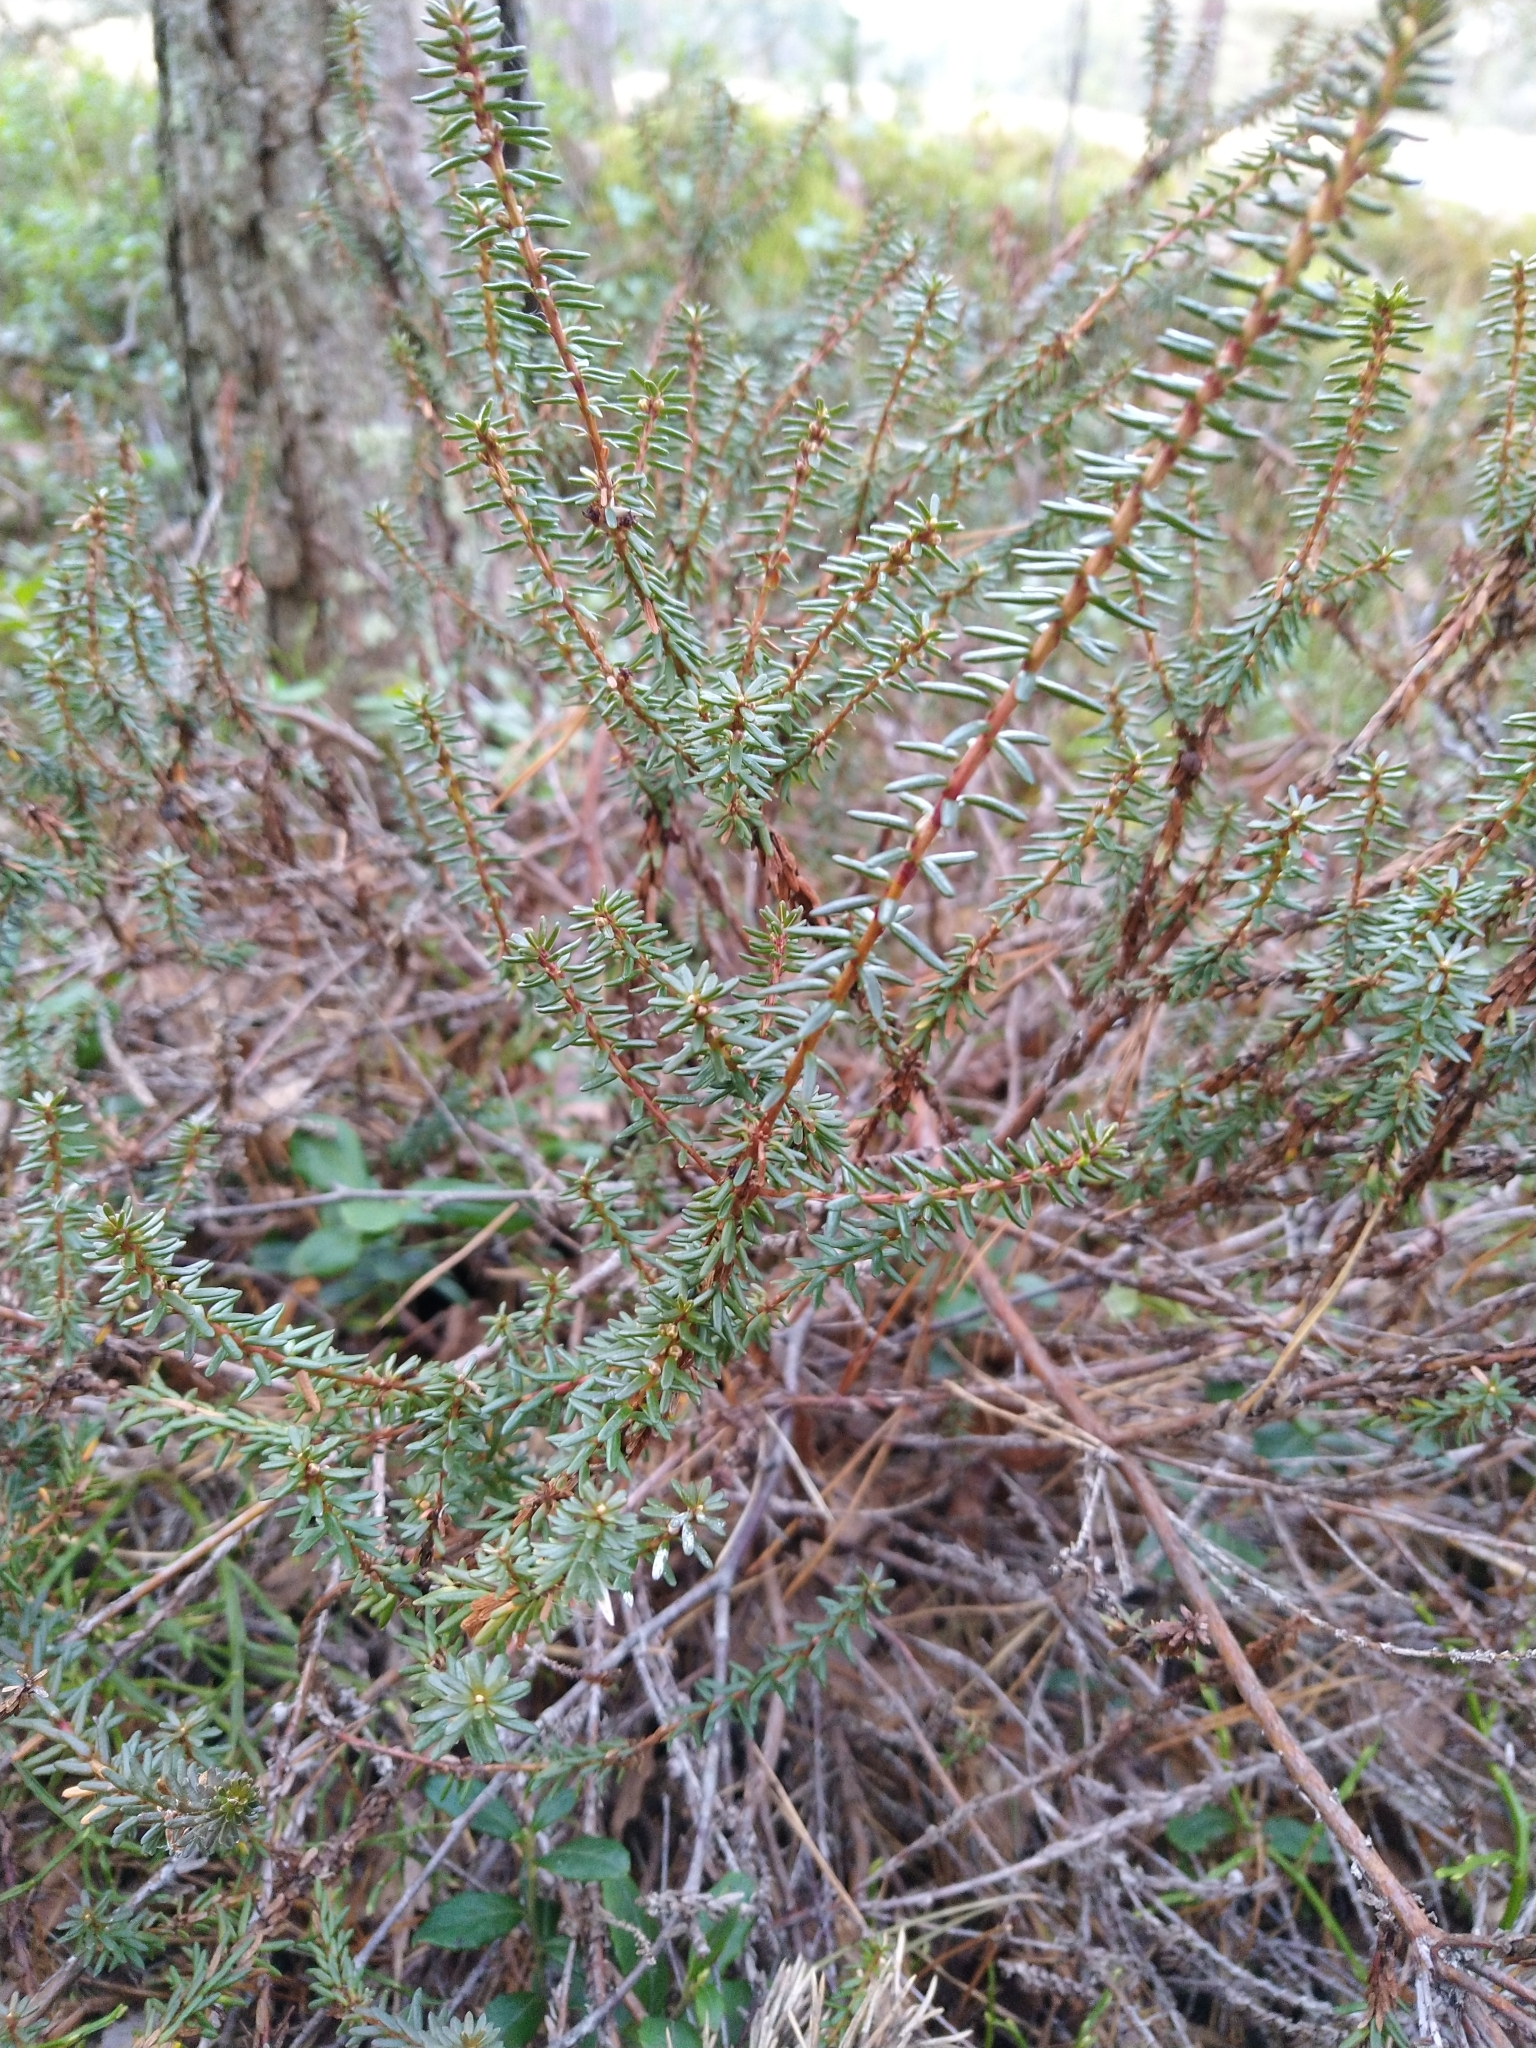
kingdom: Plantae
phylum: Tracheophyta
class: Magnoliopsida
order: Ericales
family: Ericaceae
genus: Empetrum
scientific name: Empetrum nigrum
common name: Black crowberry
